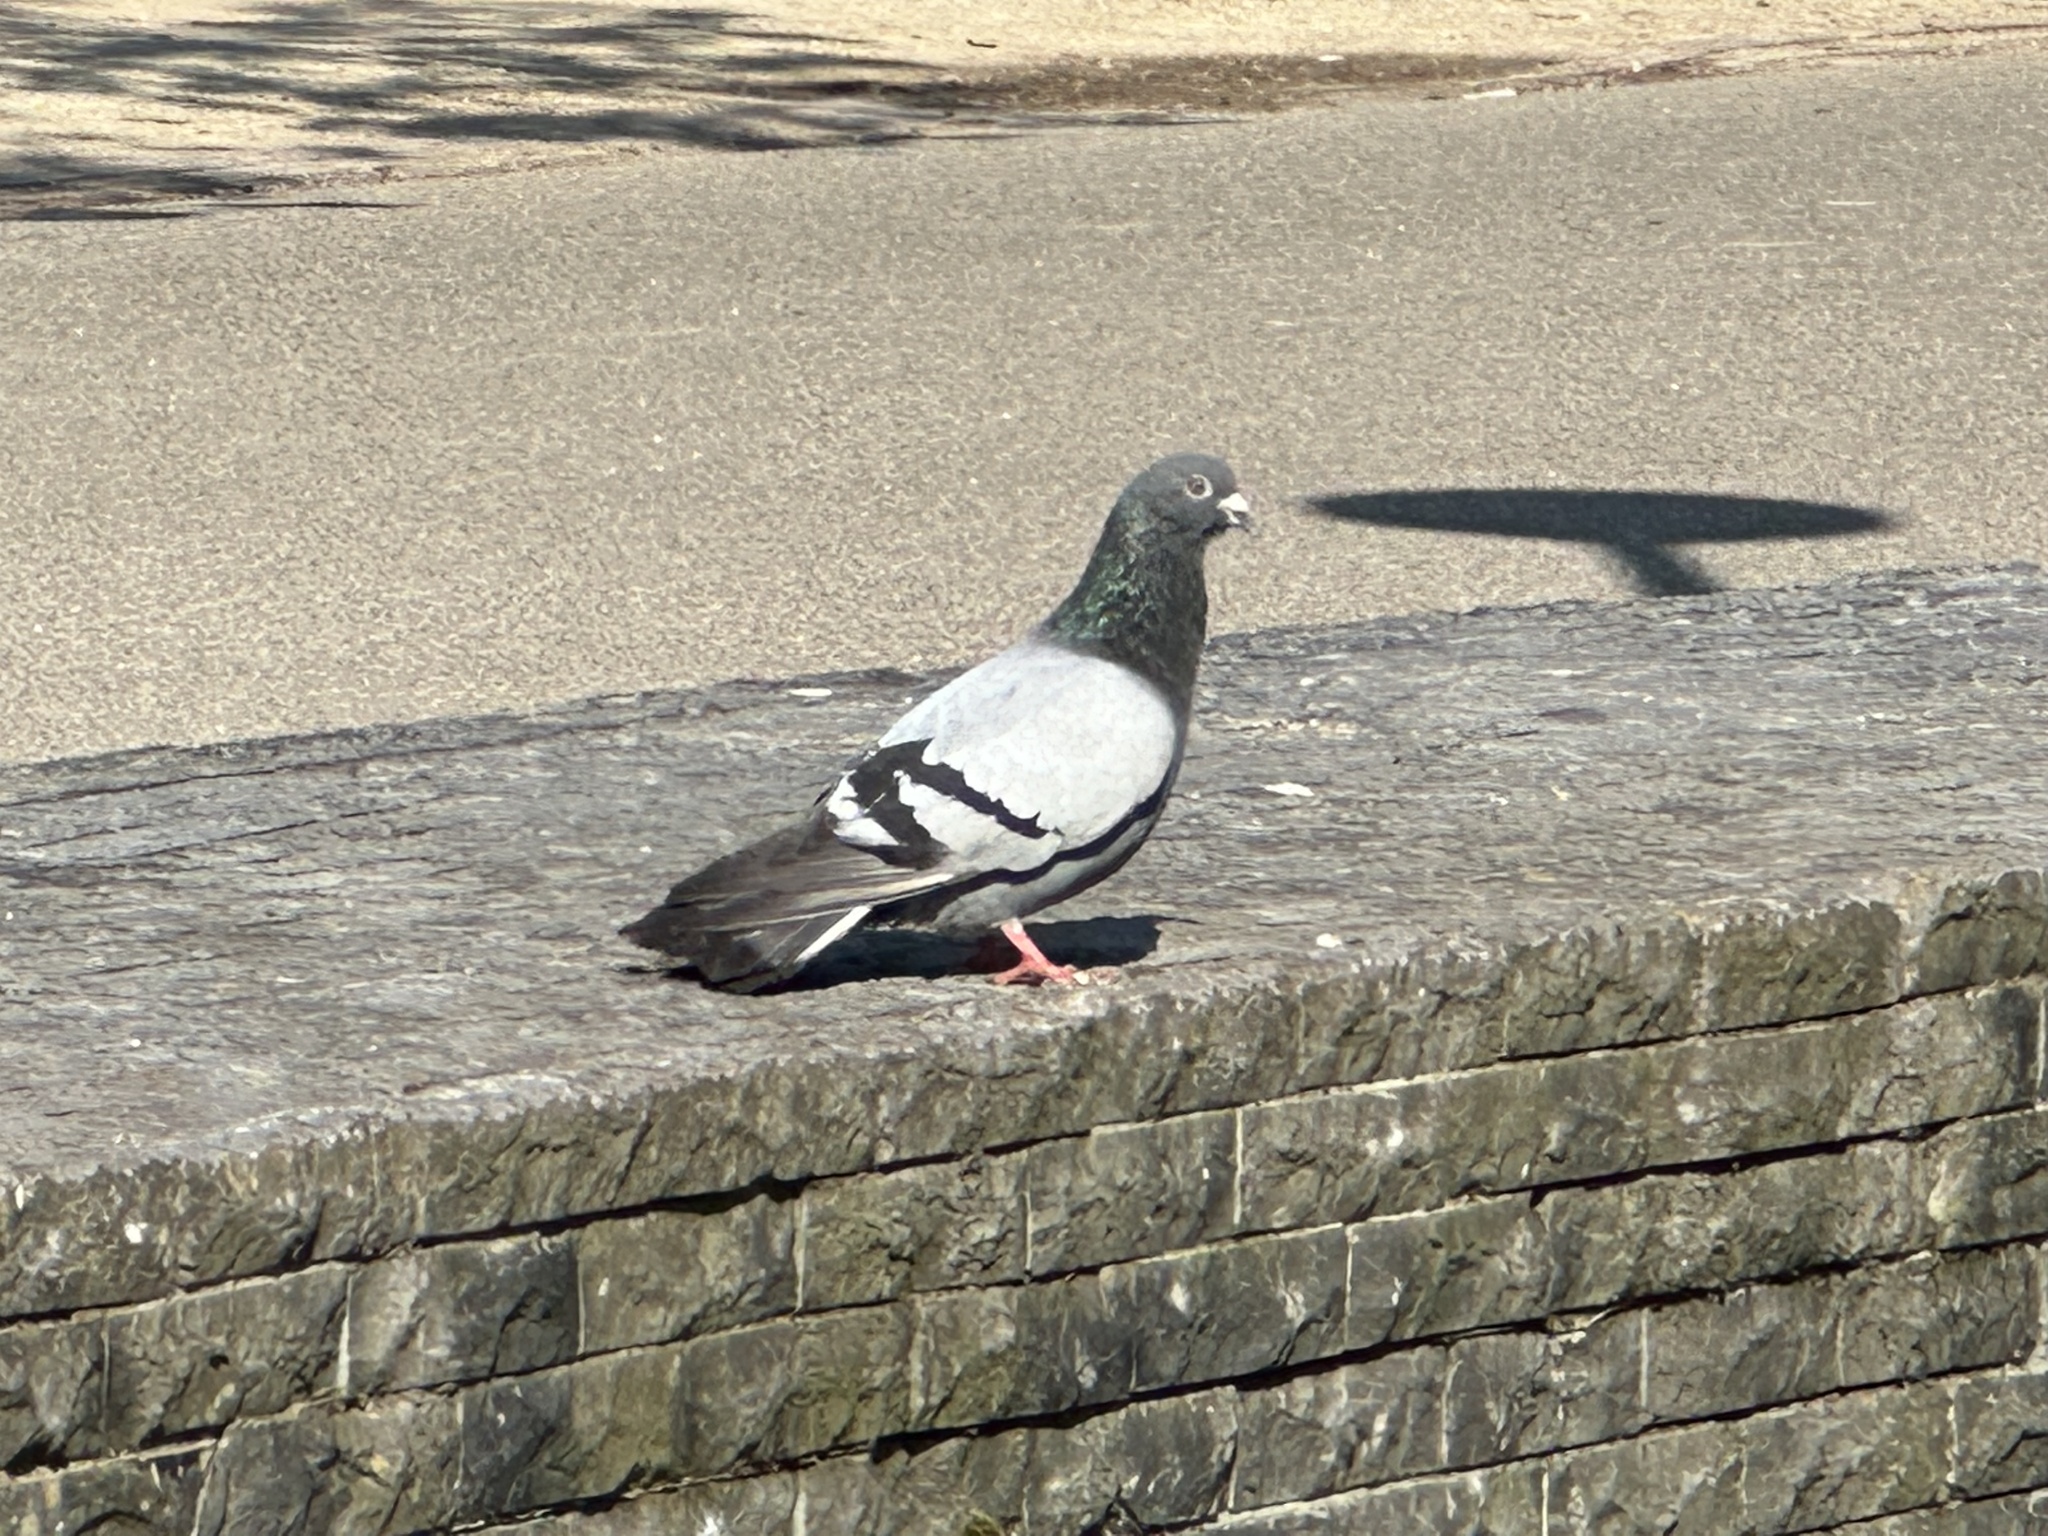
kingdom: Animalia
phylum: Chordata
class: Aves
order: Columbiformes
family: Columbidae
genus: Columba
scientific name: Columba livia
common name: Rock pigeon
